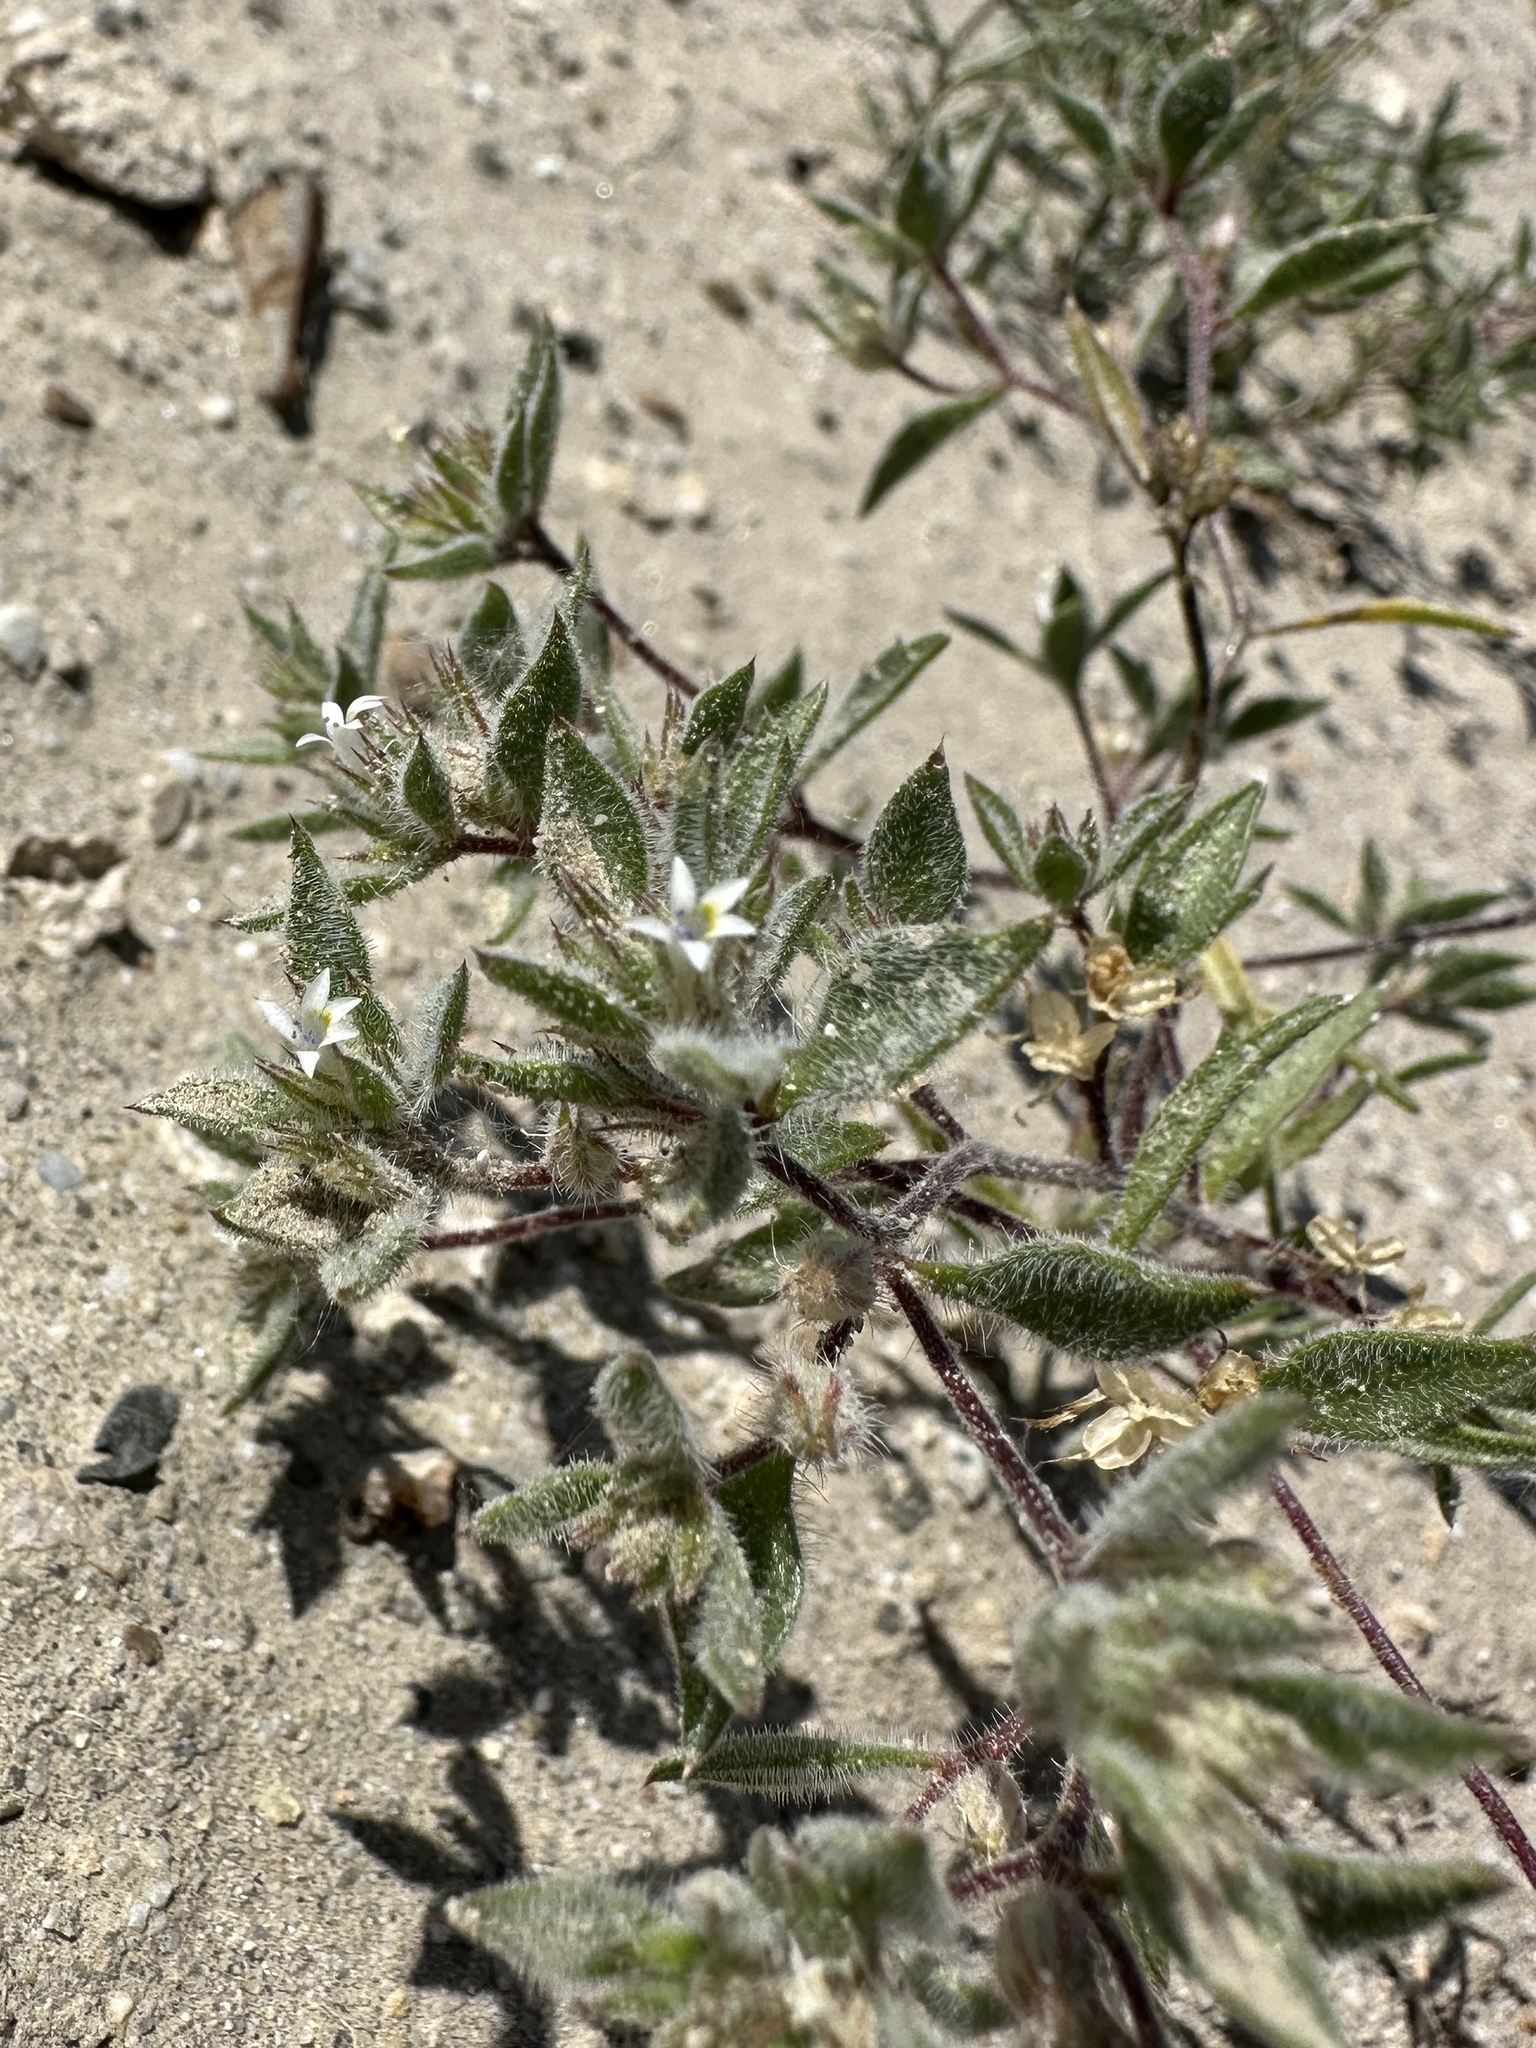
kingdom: Plantae
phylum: Tracheophyta
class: Magnoliopsida
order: Ericales
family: Polemoniaceae
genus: Loeseliastrum
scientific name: Loeseliastrum depressum
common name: Depressed ipomopsis
